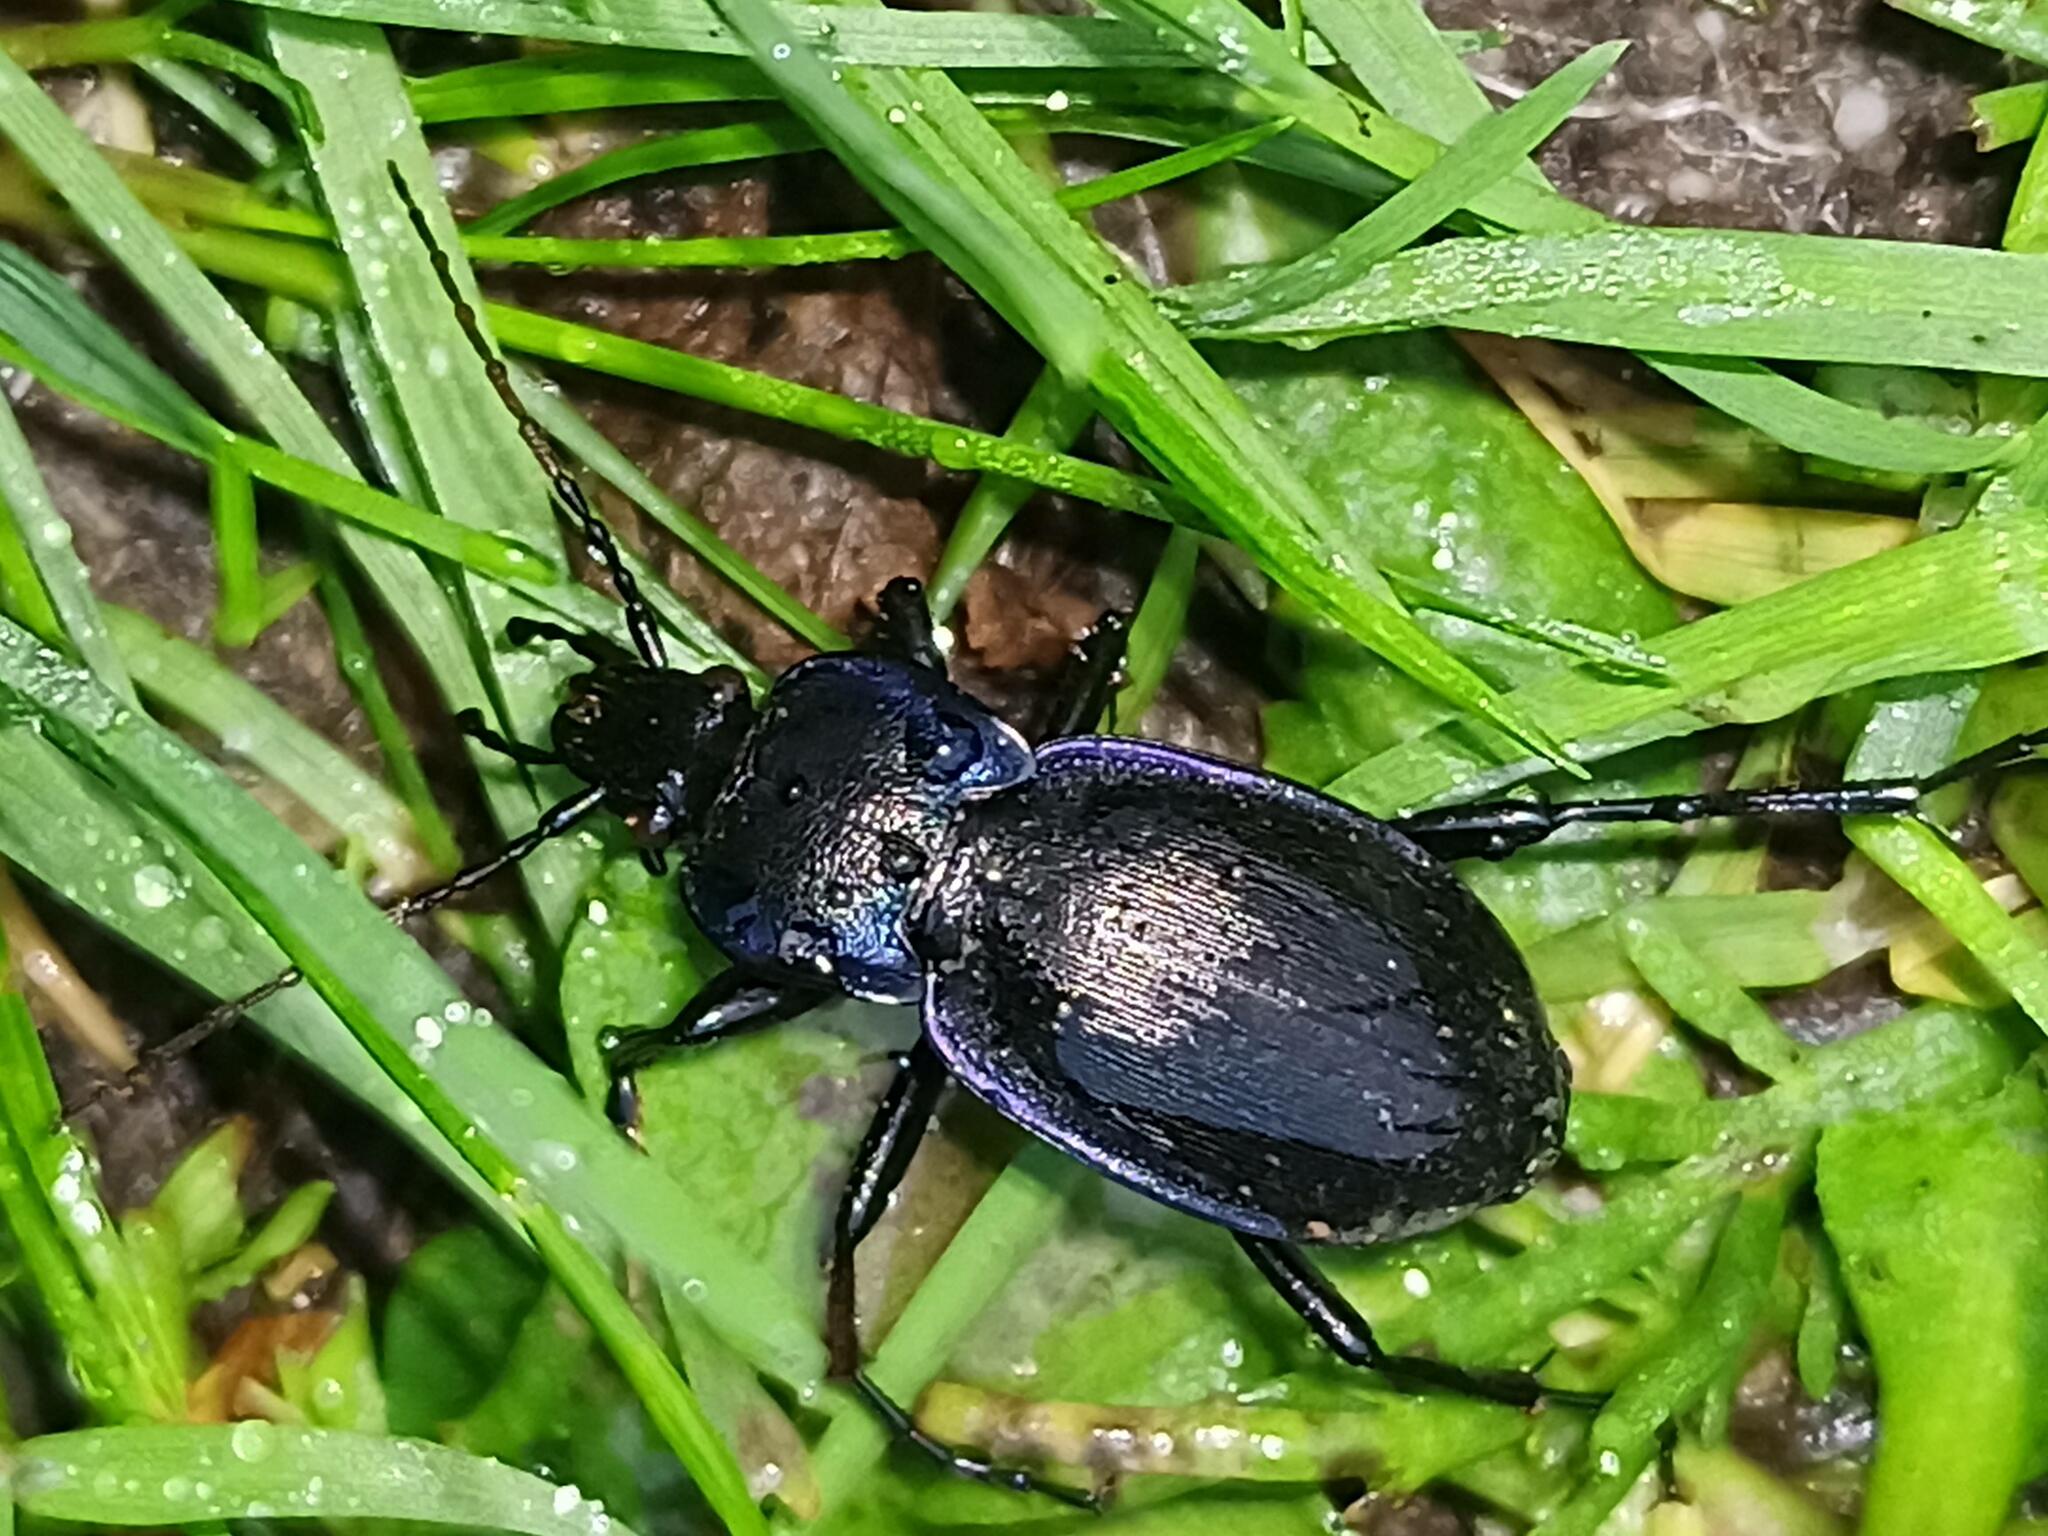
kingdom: Animalia
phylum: Arthropoda
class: Insecta
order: Coleoptera
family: Carabidae
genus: Carabus
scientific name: Carabus luetgensi
